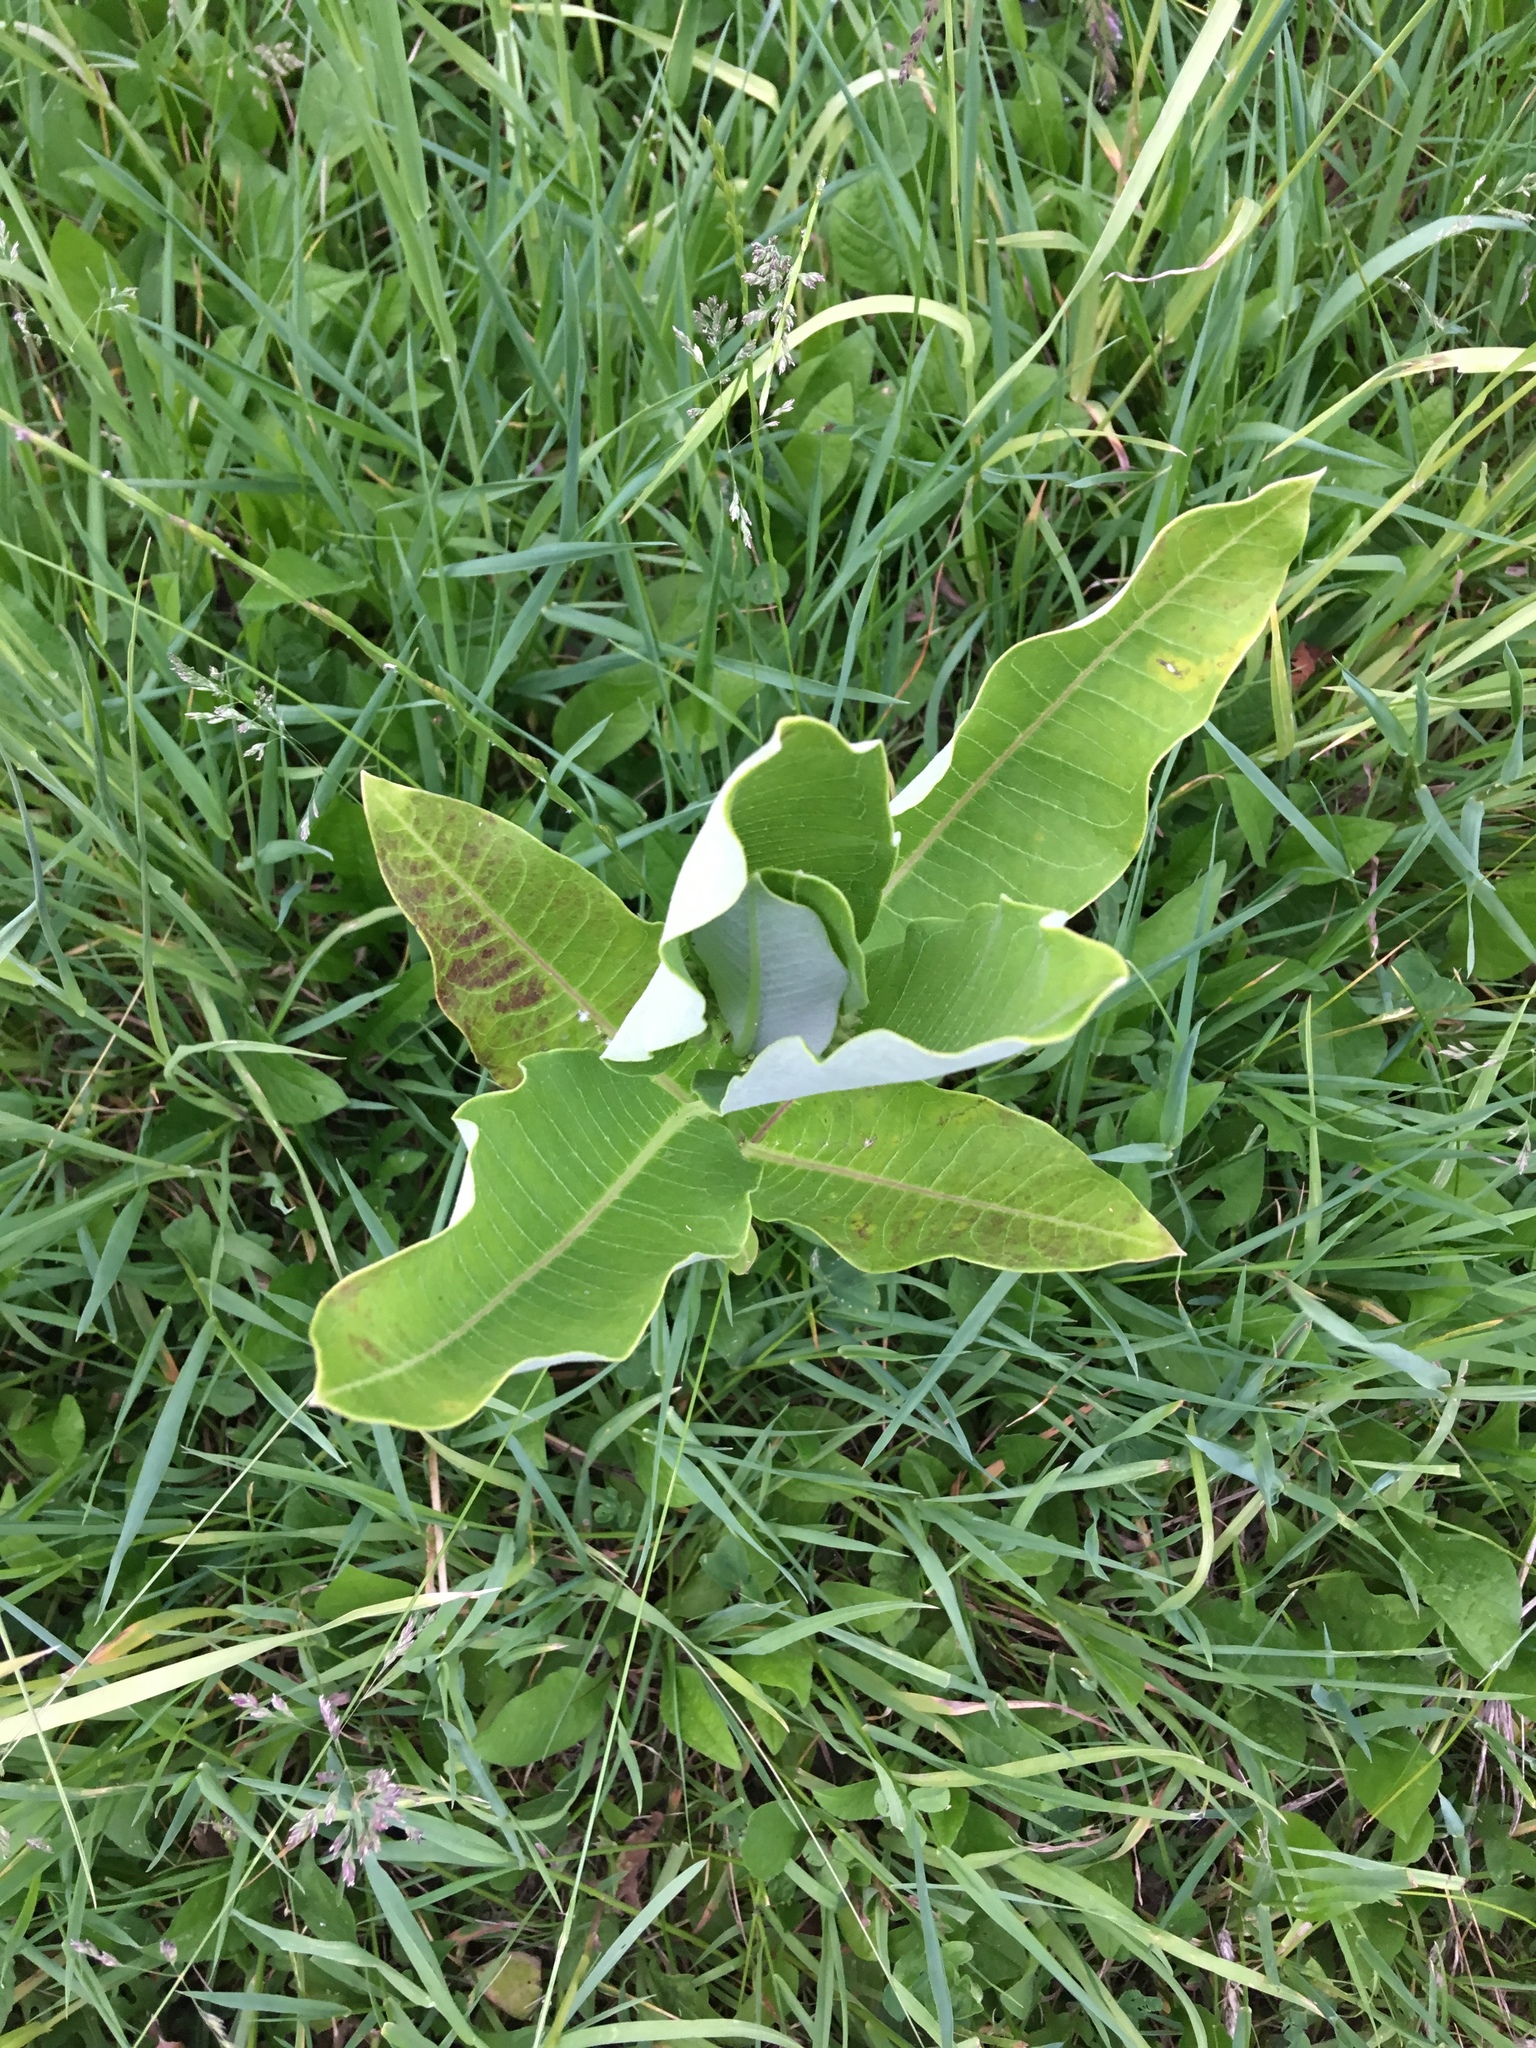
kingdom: Plantae
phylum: Tracheophyta
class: Magnoliopsida
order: Gentianales
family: Apocynaceae
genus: Asclepias
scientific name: Asclepias syriaca
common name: Common milkweed
